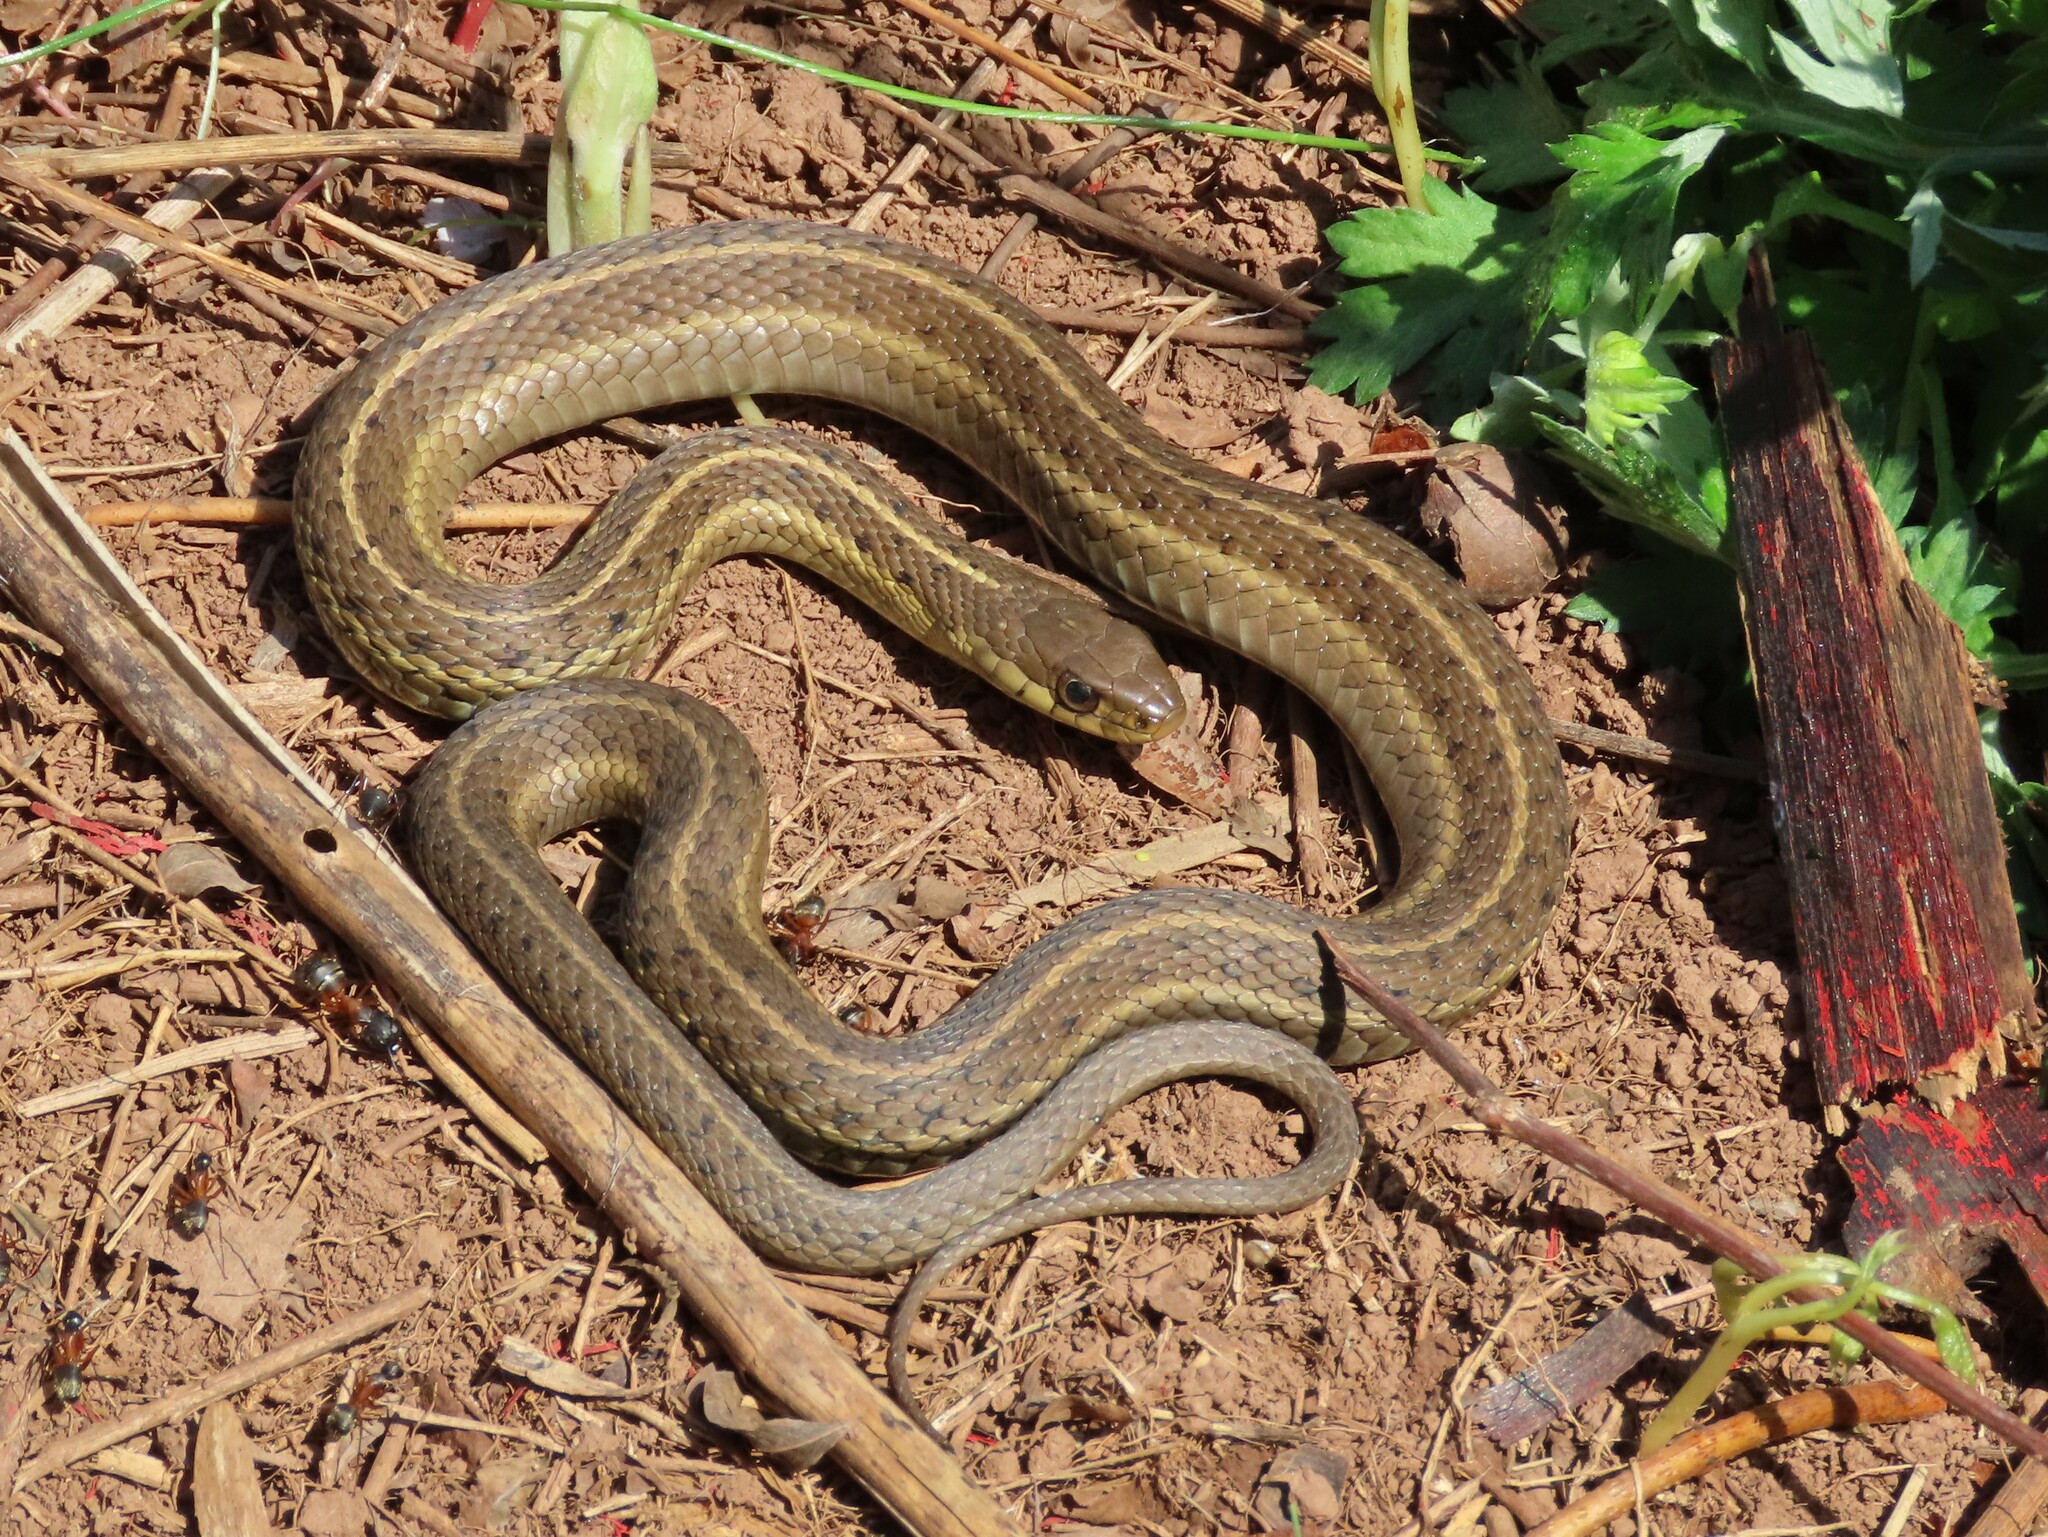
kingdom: Animalia
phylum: Chordata
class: Squamata
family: Colubridae
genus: Thamnophis
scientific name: Thamnophis sirtalis
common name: Common garter snake
